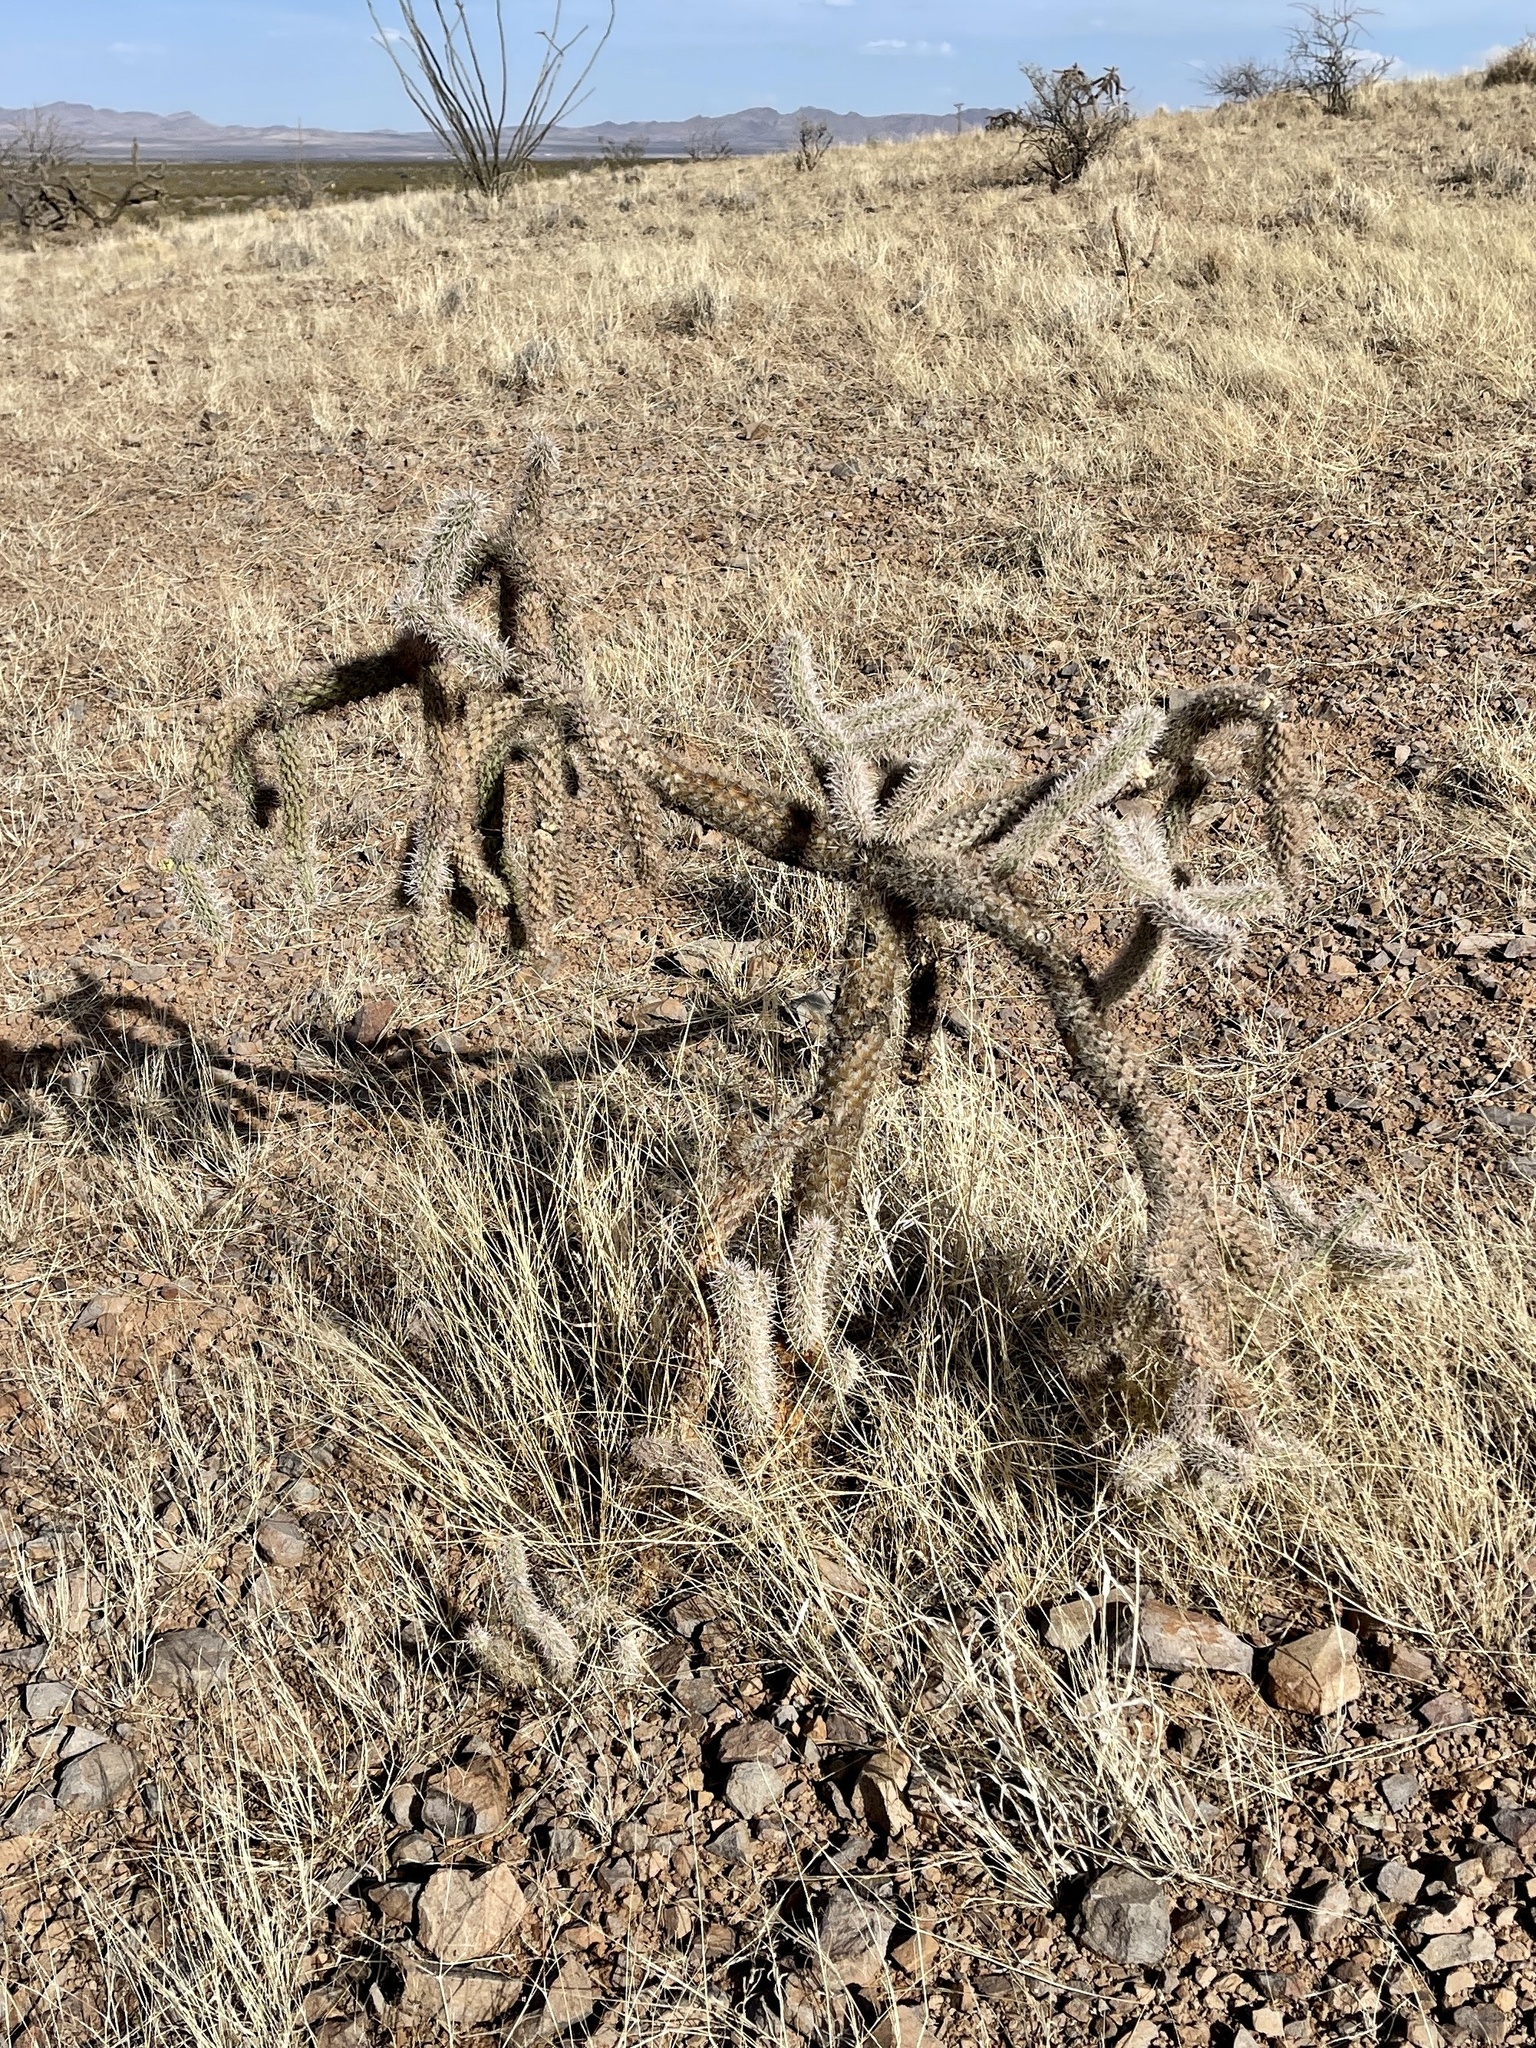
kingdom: Plantae
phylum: Tracheophyta
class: Magnoliopsida
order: Caryophyllales
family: Cactaceae
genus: Cylindropuntia
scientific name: Cylindropuntia imbricata
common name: Candelabrum cactus
